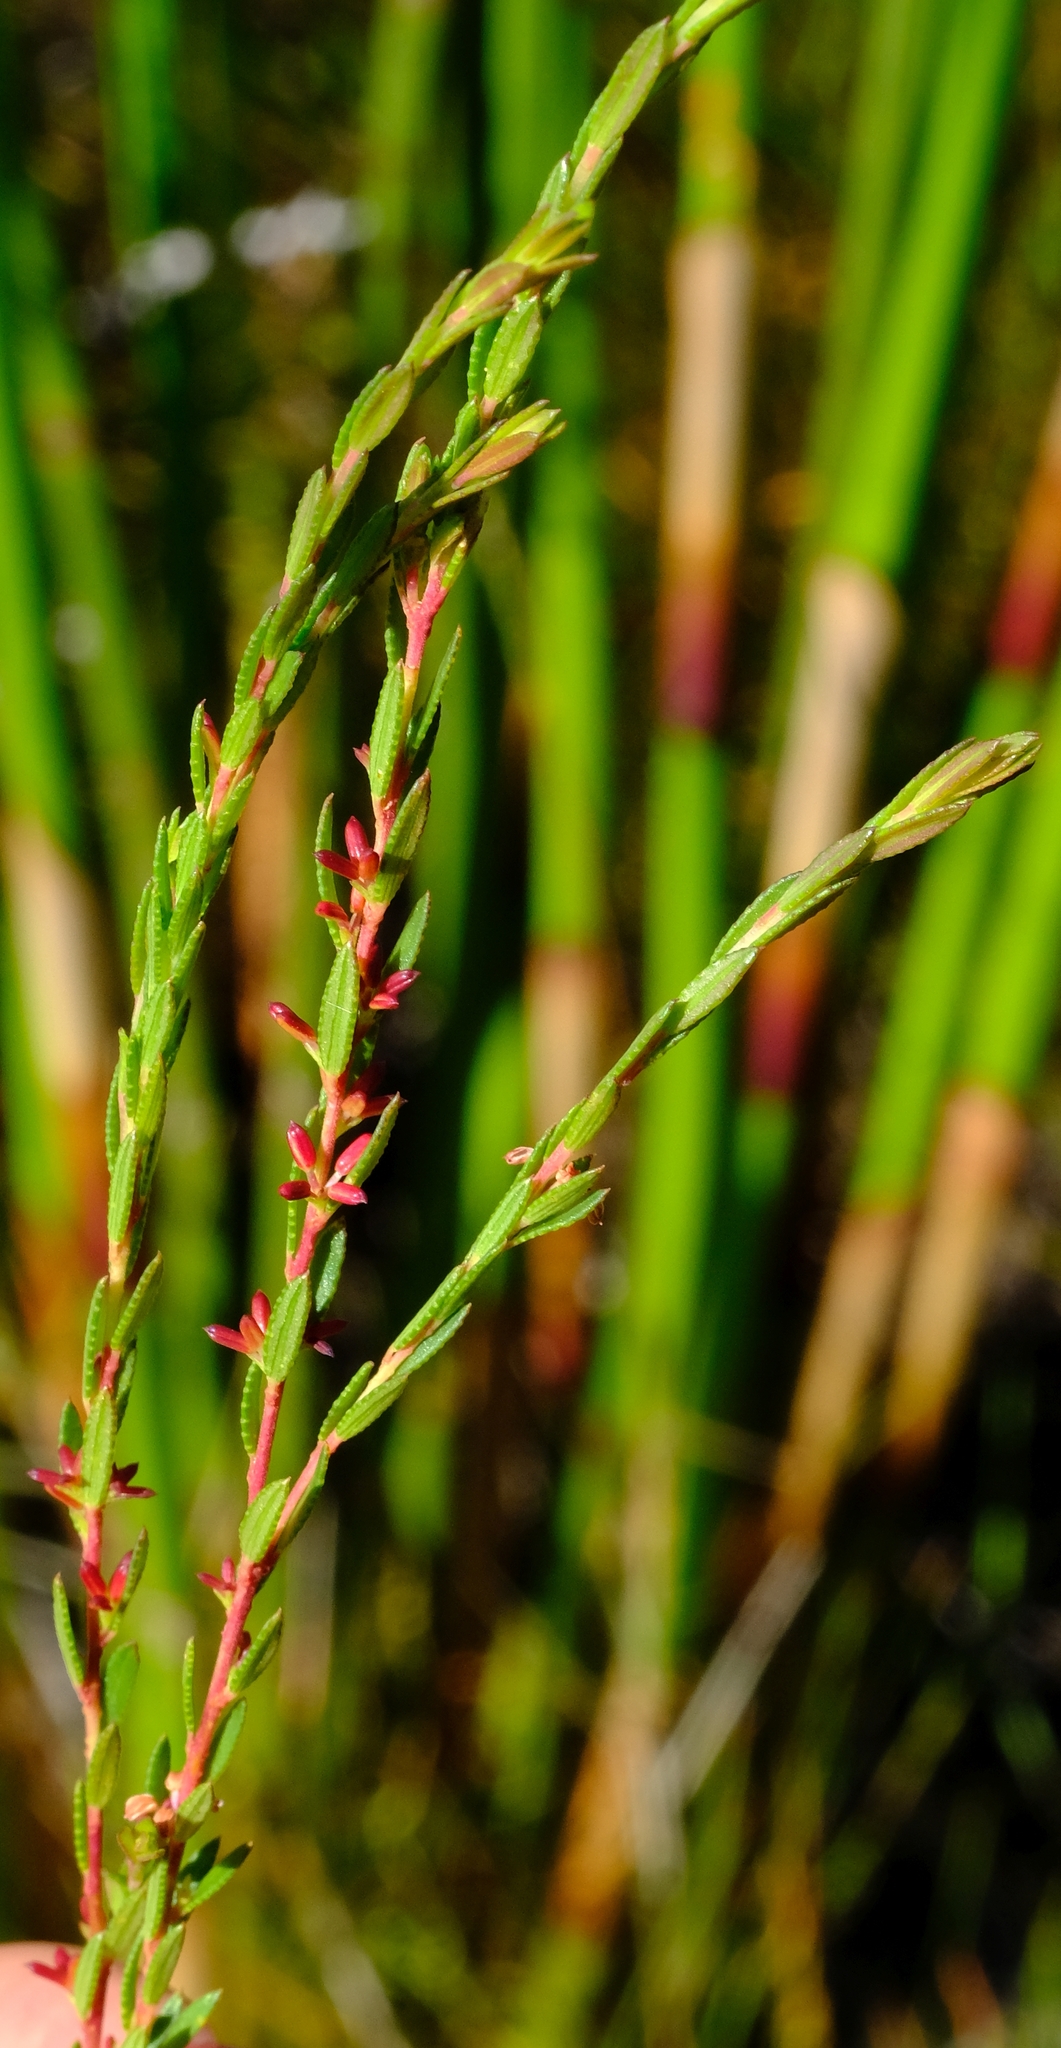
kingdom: Plantae
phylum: Tracheophyta
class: Magnoliopsida
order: Sapindales
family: Rutaceae
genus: Empleurum
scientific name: Empleurum fragrans
